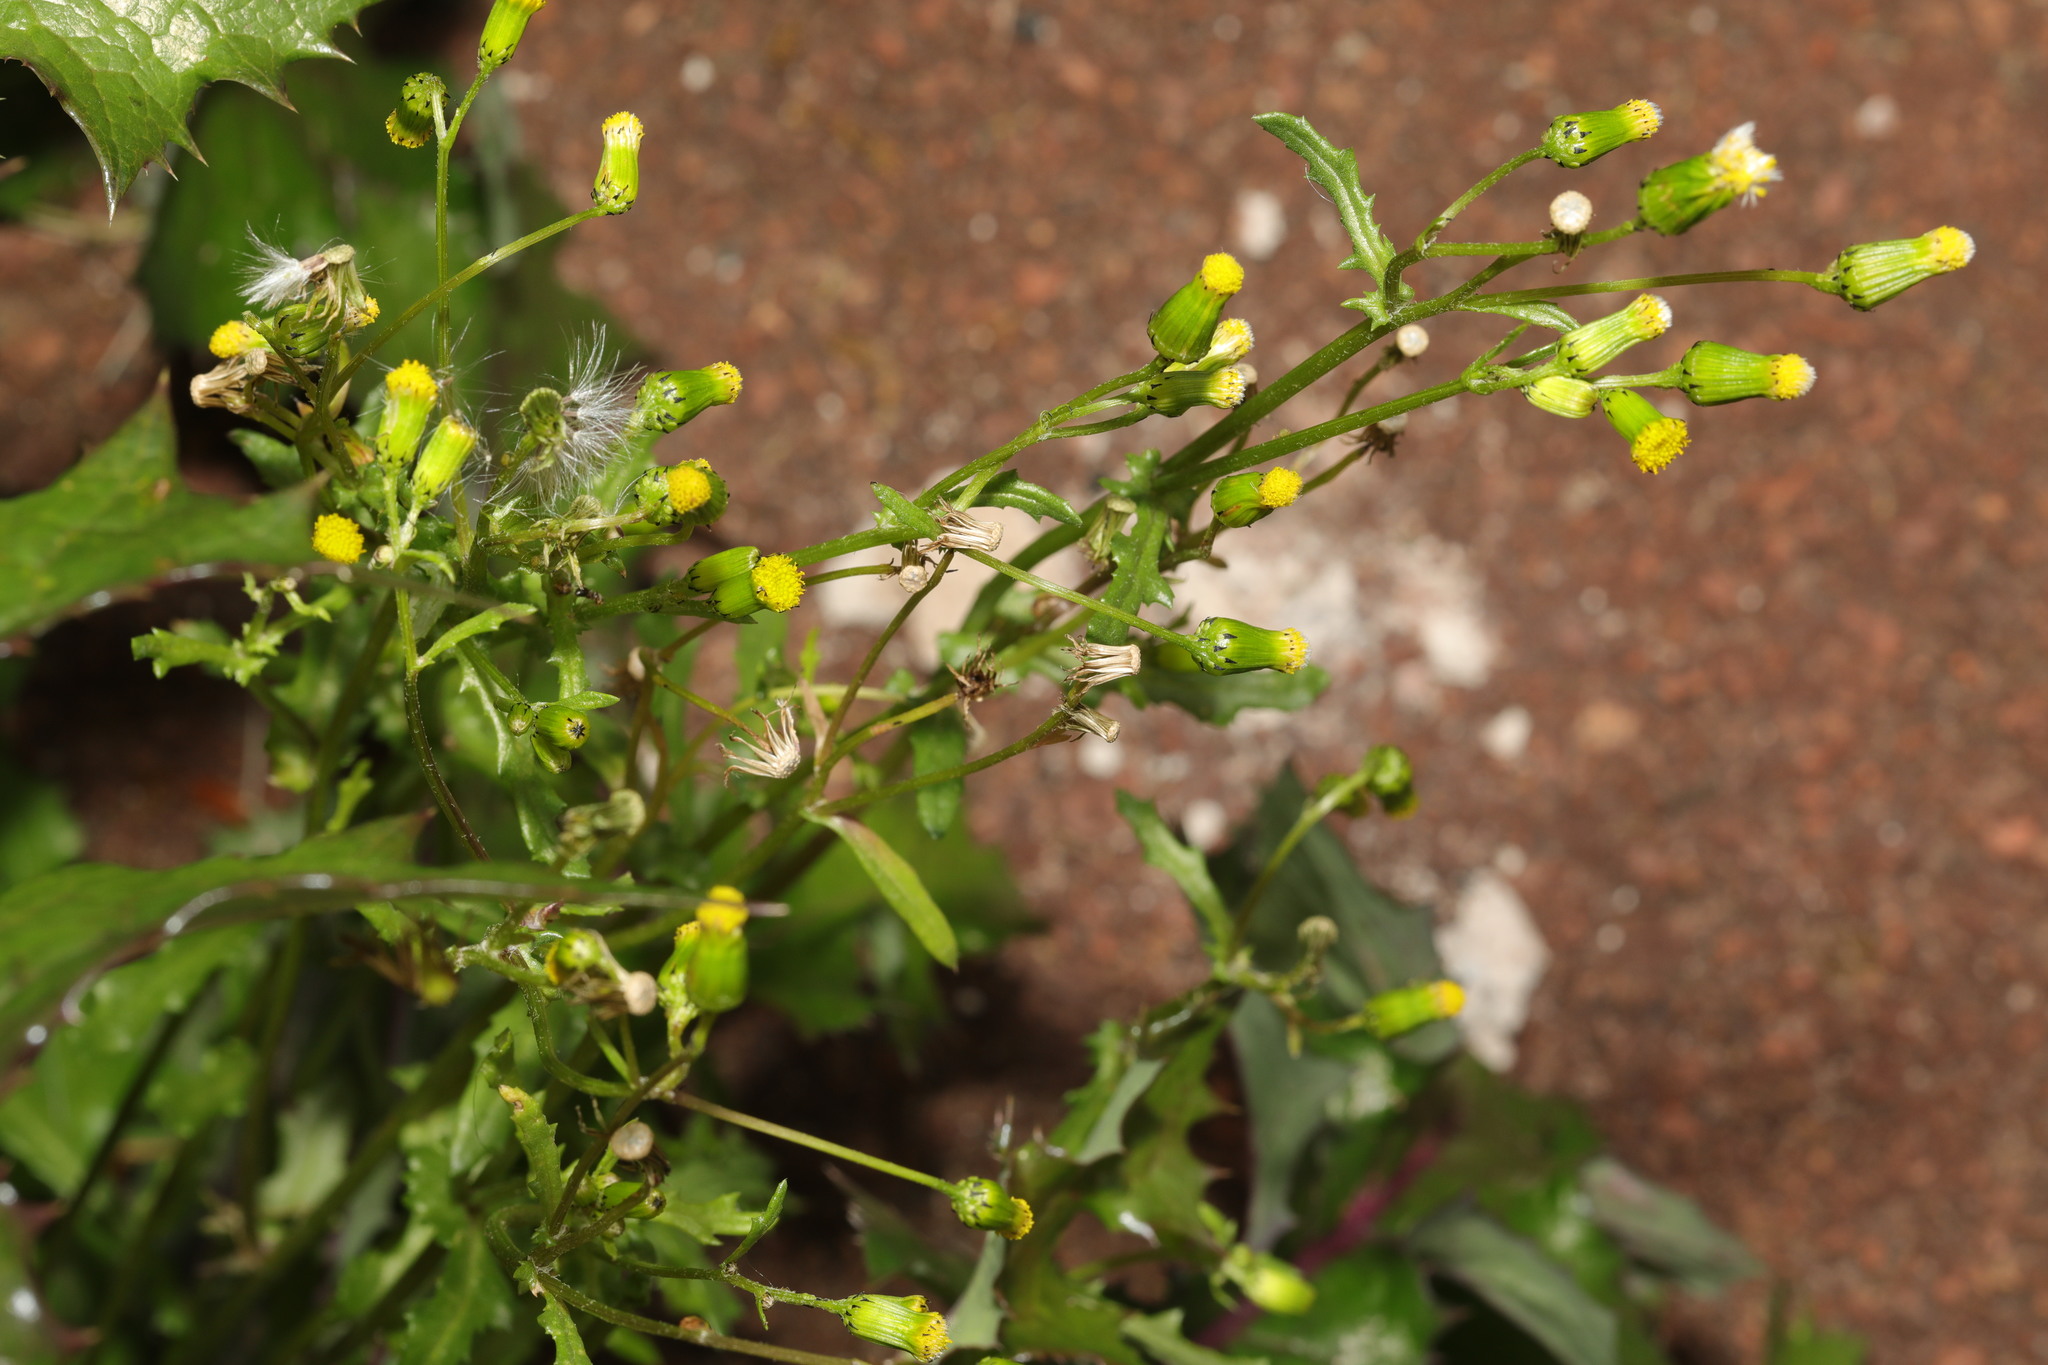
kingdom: Plantae
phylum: Tracheophyta
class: Magnoliopsida
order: Asterales
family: Asteraceae
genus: Senecio
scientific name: Senecio vulgaris
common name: Old-man-in-the-spring
